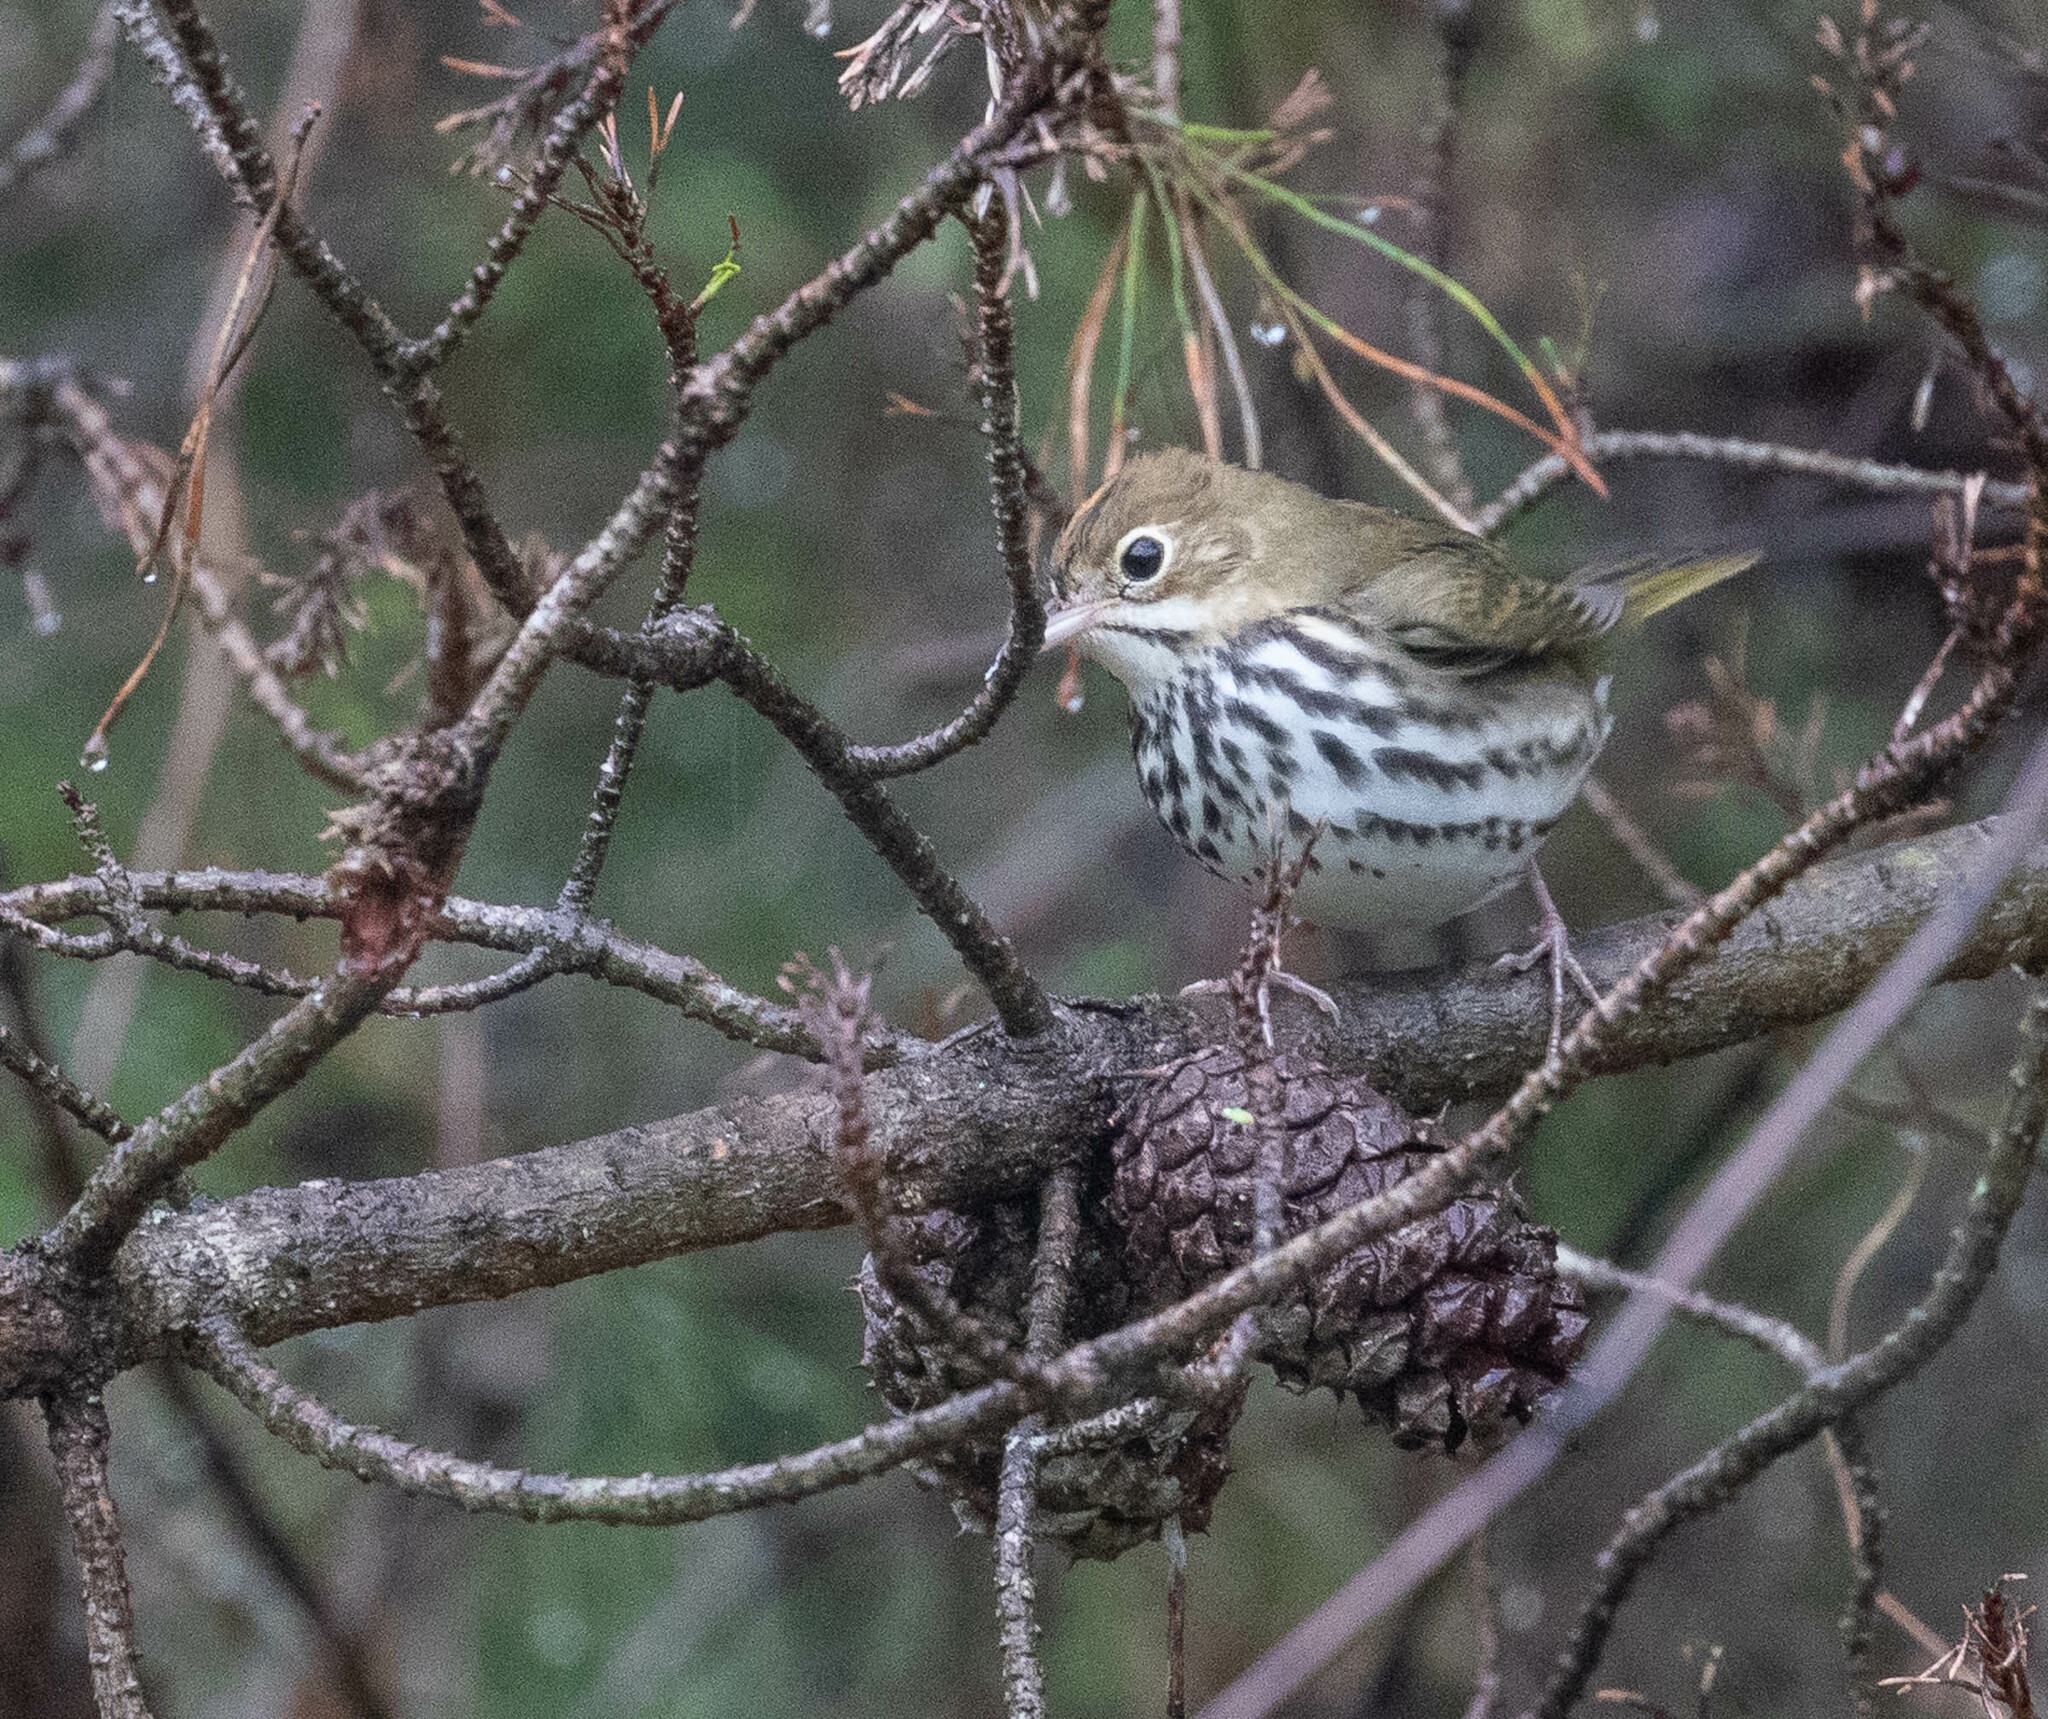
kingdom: Animalia
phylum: Chordata
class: Aves
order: Passeriformes
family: Parulidae
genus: Seiurus
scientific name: Seiurus aurocapilla
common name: Ovenbird
